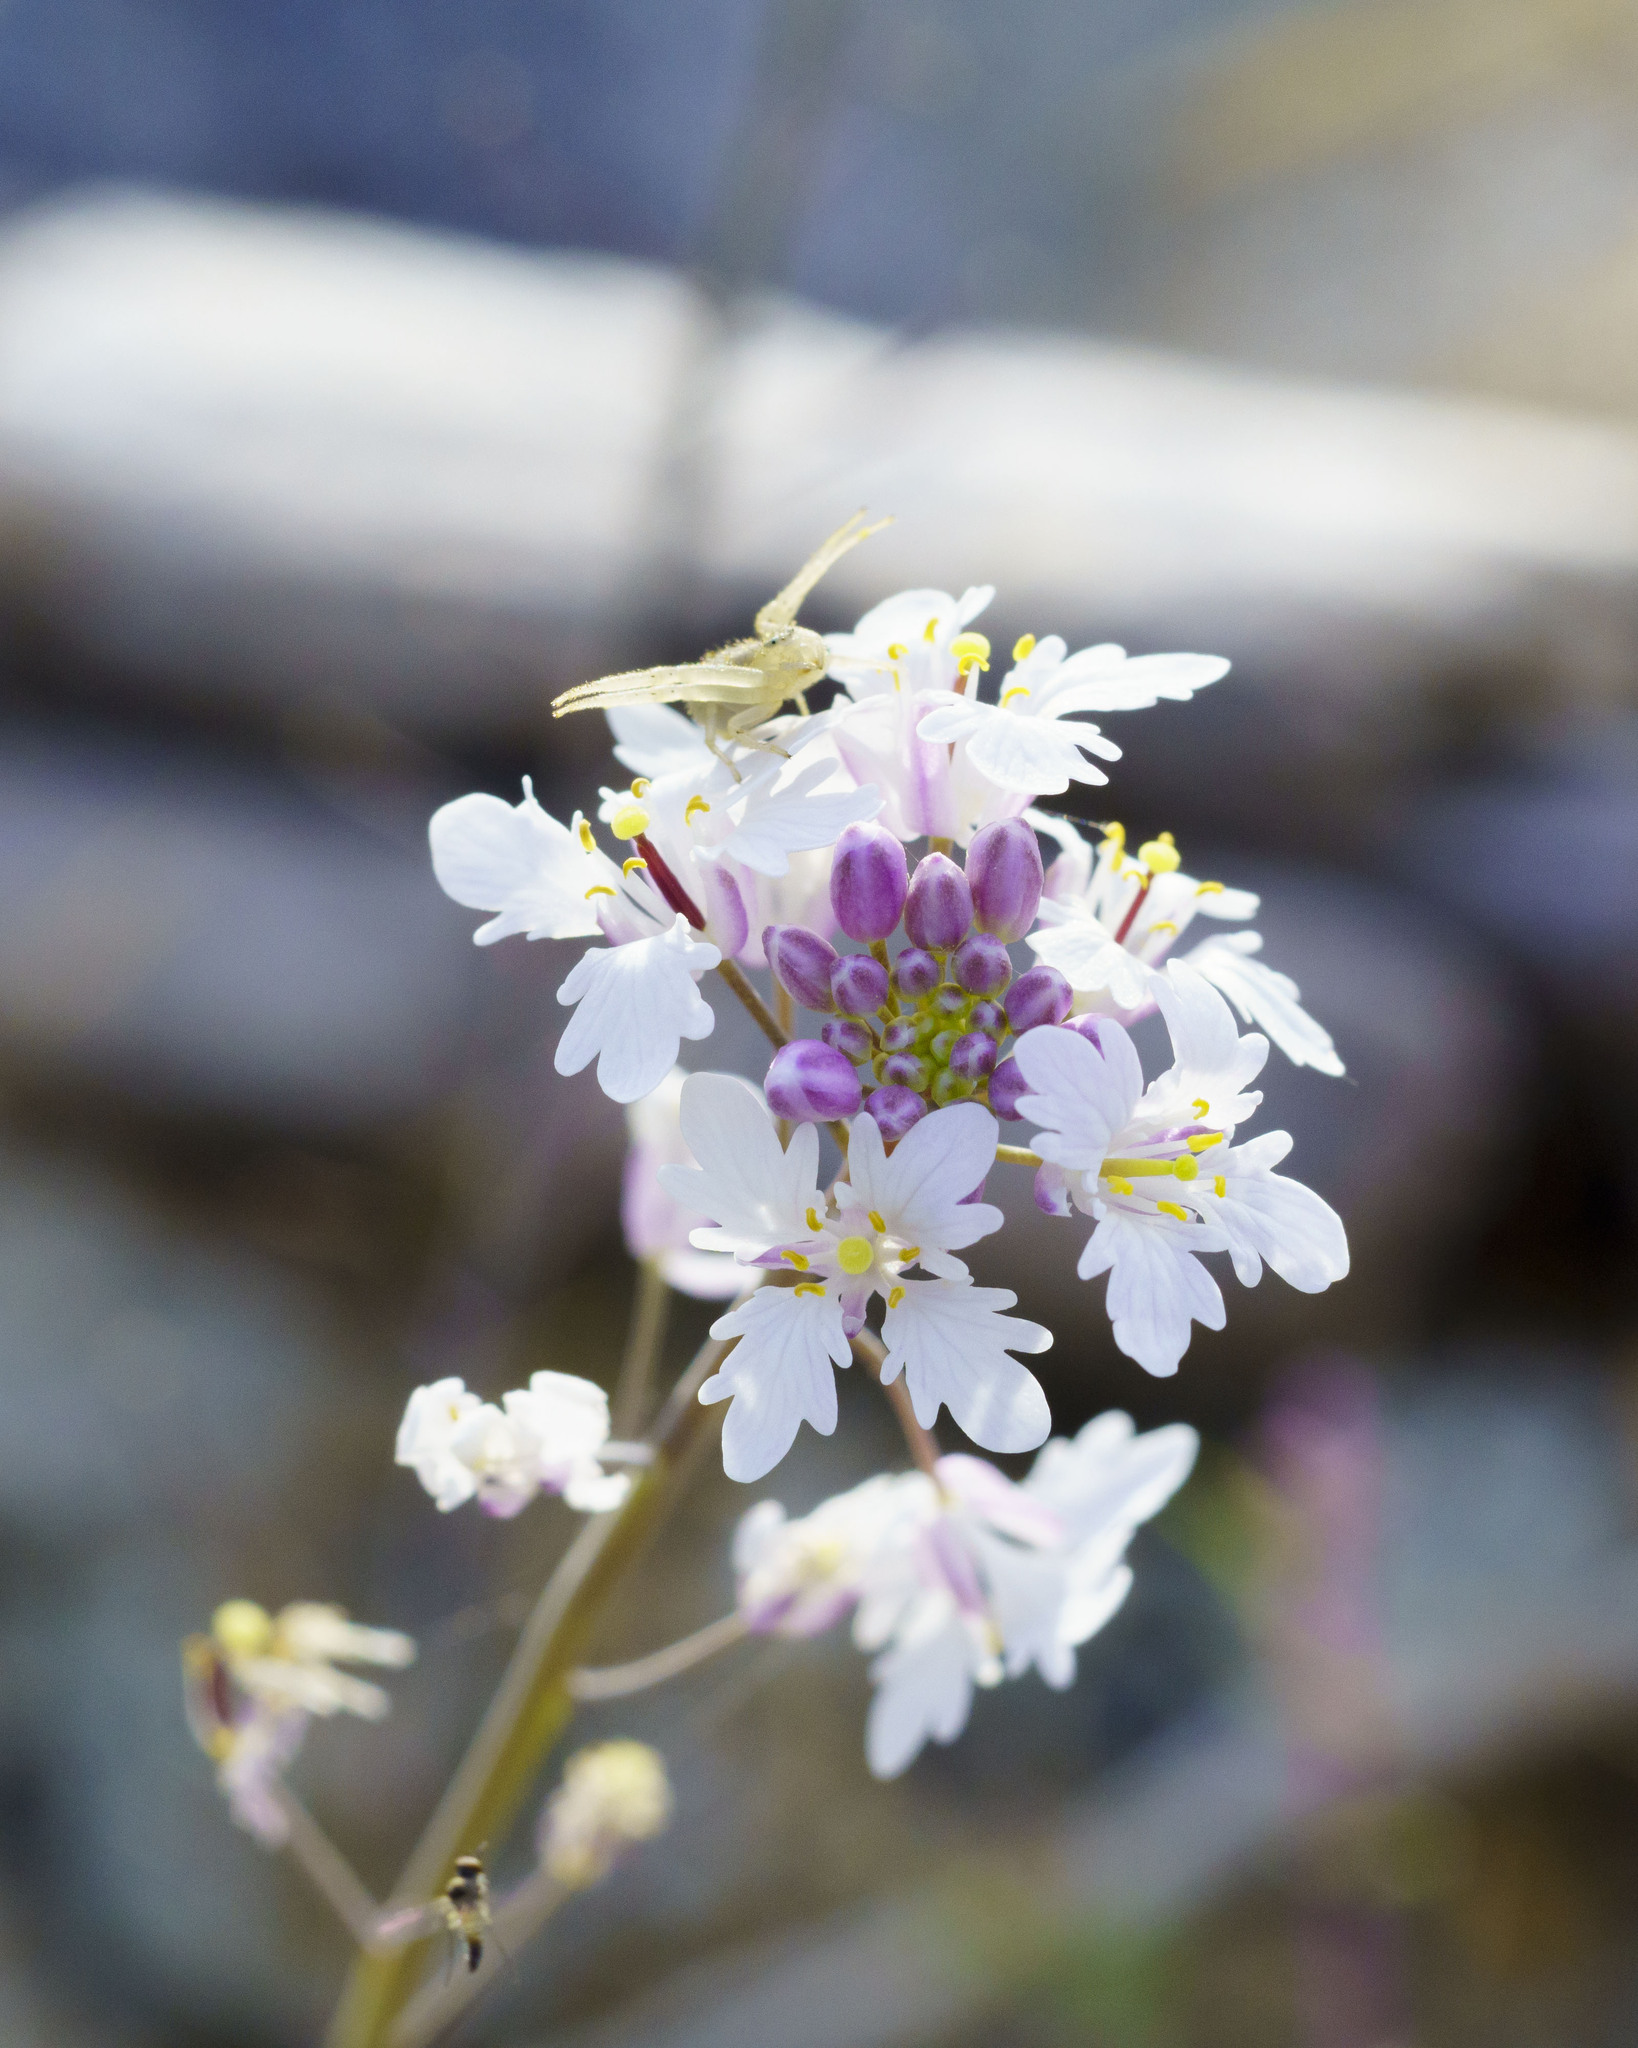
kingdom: Plantae
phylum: Tracheophyta
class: Magnoliopsida
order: Brassicales
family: Brassicaceae
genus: Dryopetalon
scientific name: Dryopetalon palmeri
